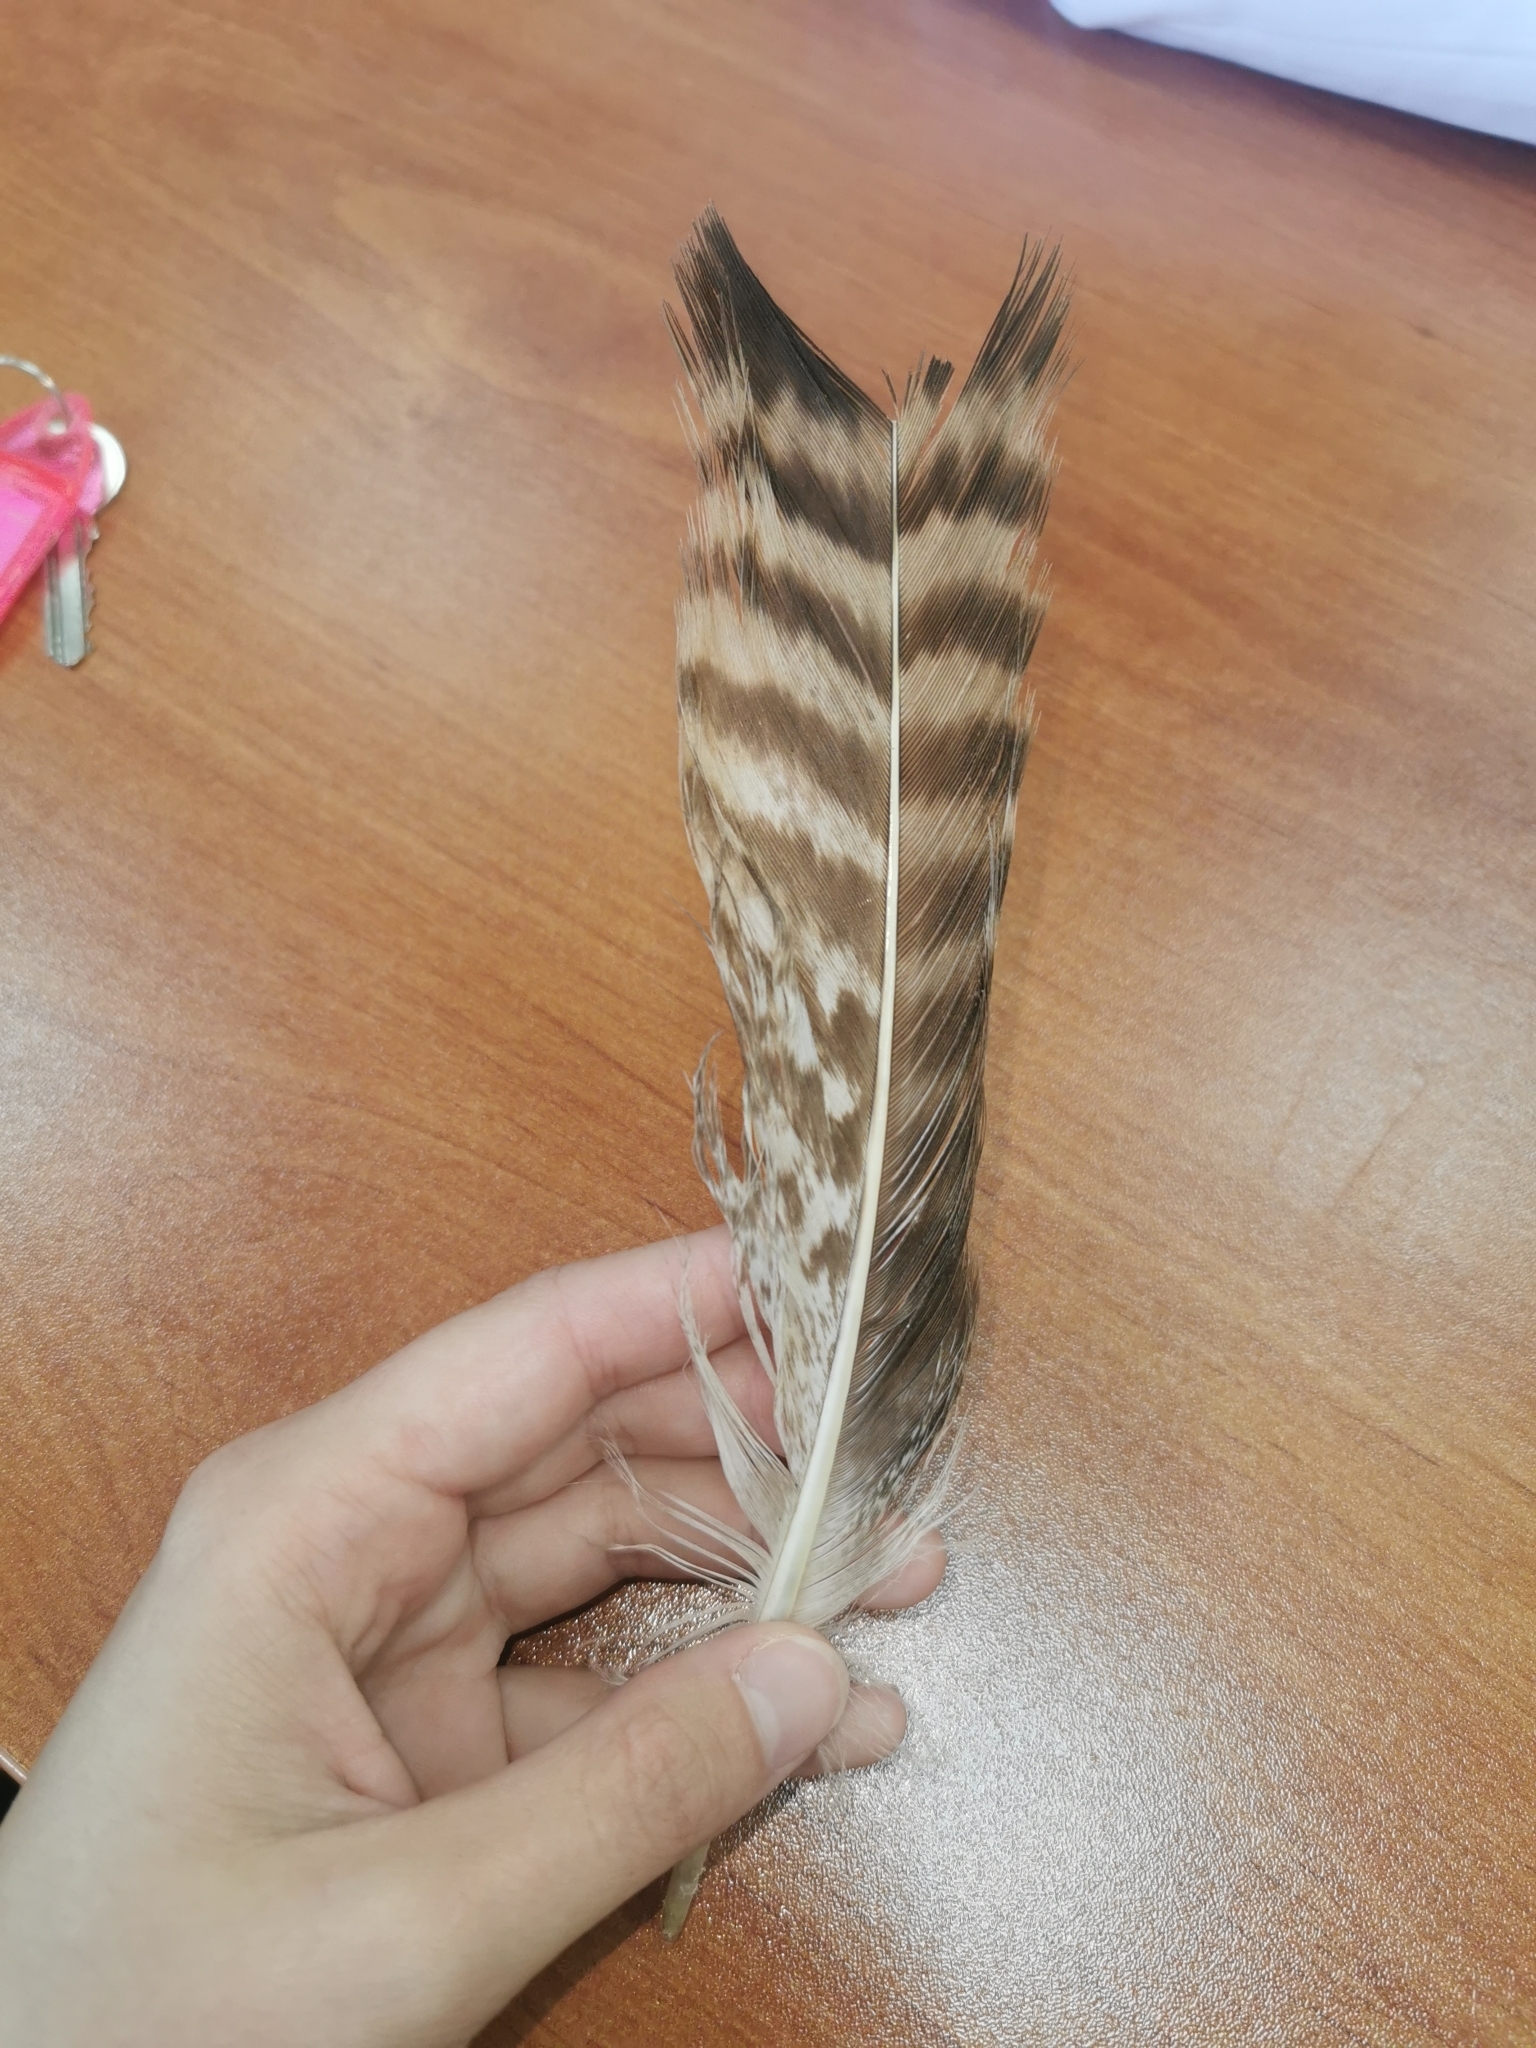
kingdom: Animalia
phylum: Chordata
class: Aves
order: Accipitriformes
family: Accipitridae
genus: Buteo
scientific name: Buteo buteo
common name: Common buzzard
